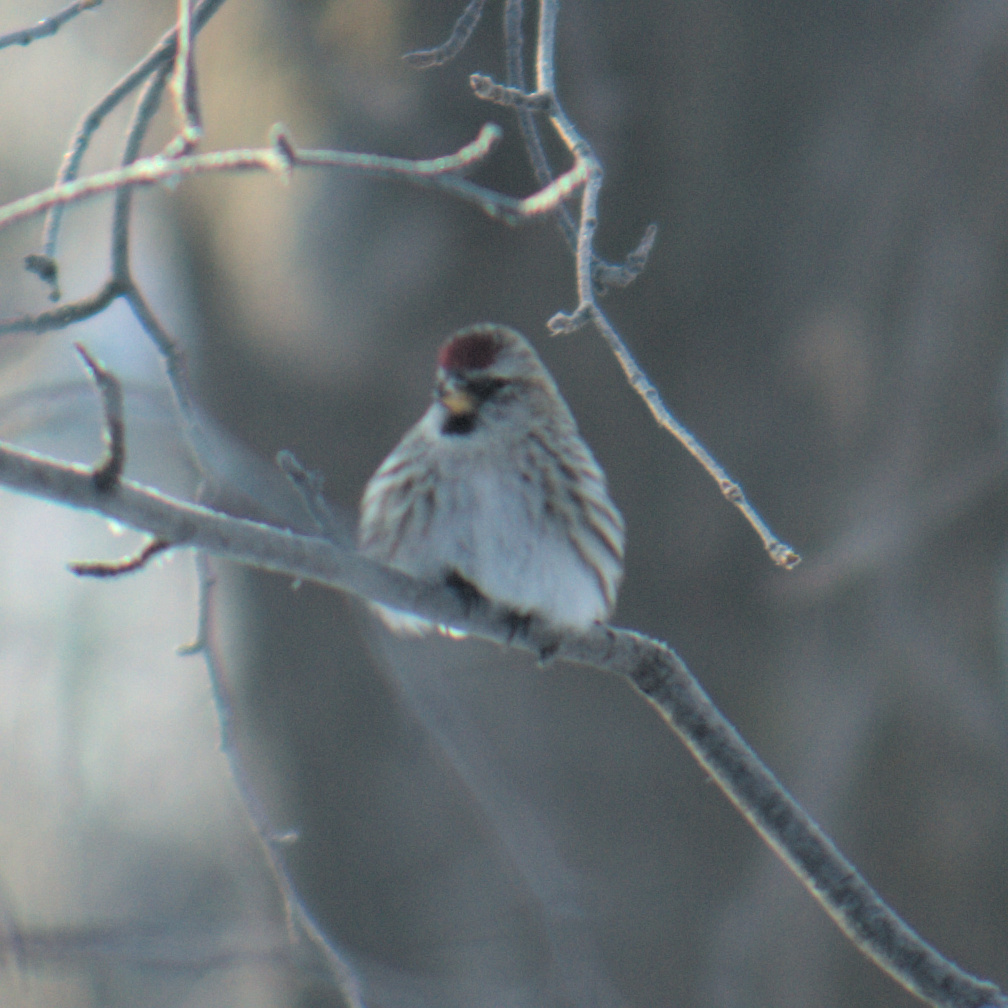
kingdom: Animalia
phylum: Chordata
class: Aves
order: Passeriformes
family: Fringillidae
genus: Acanthis
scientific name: Acanthis flammea
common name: Common redpoll
